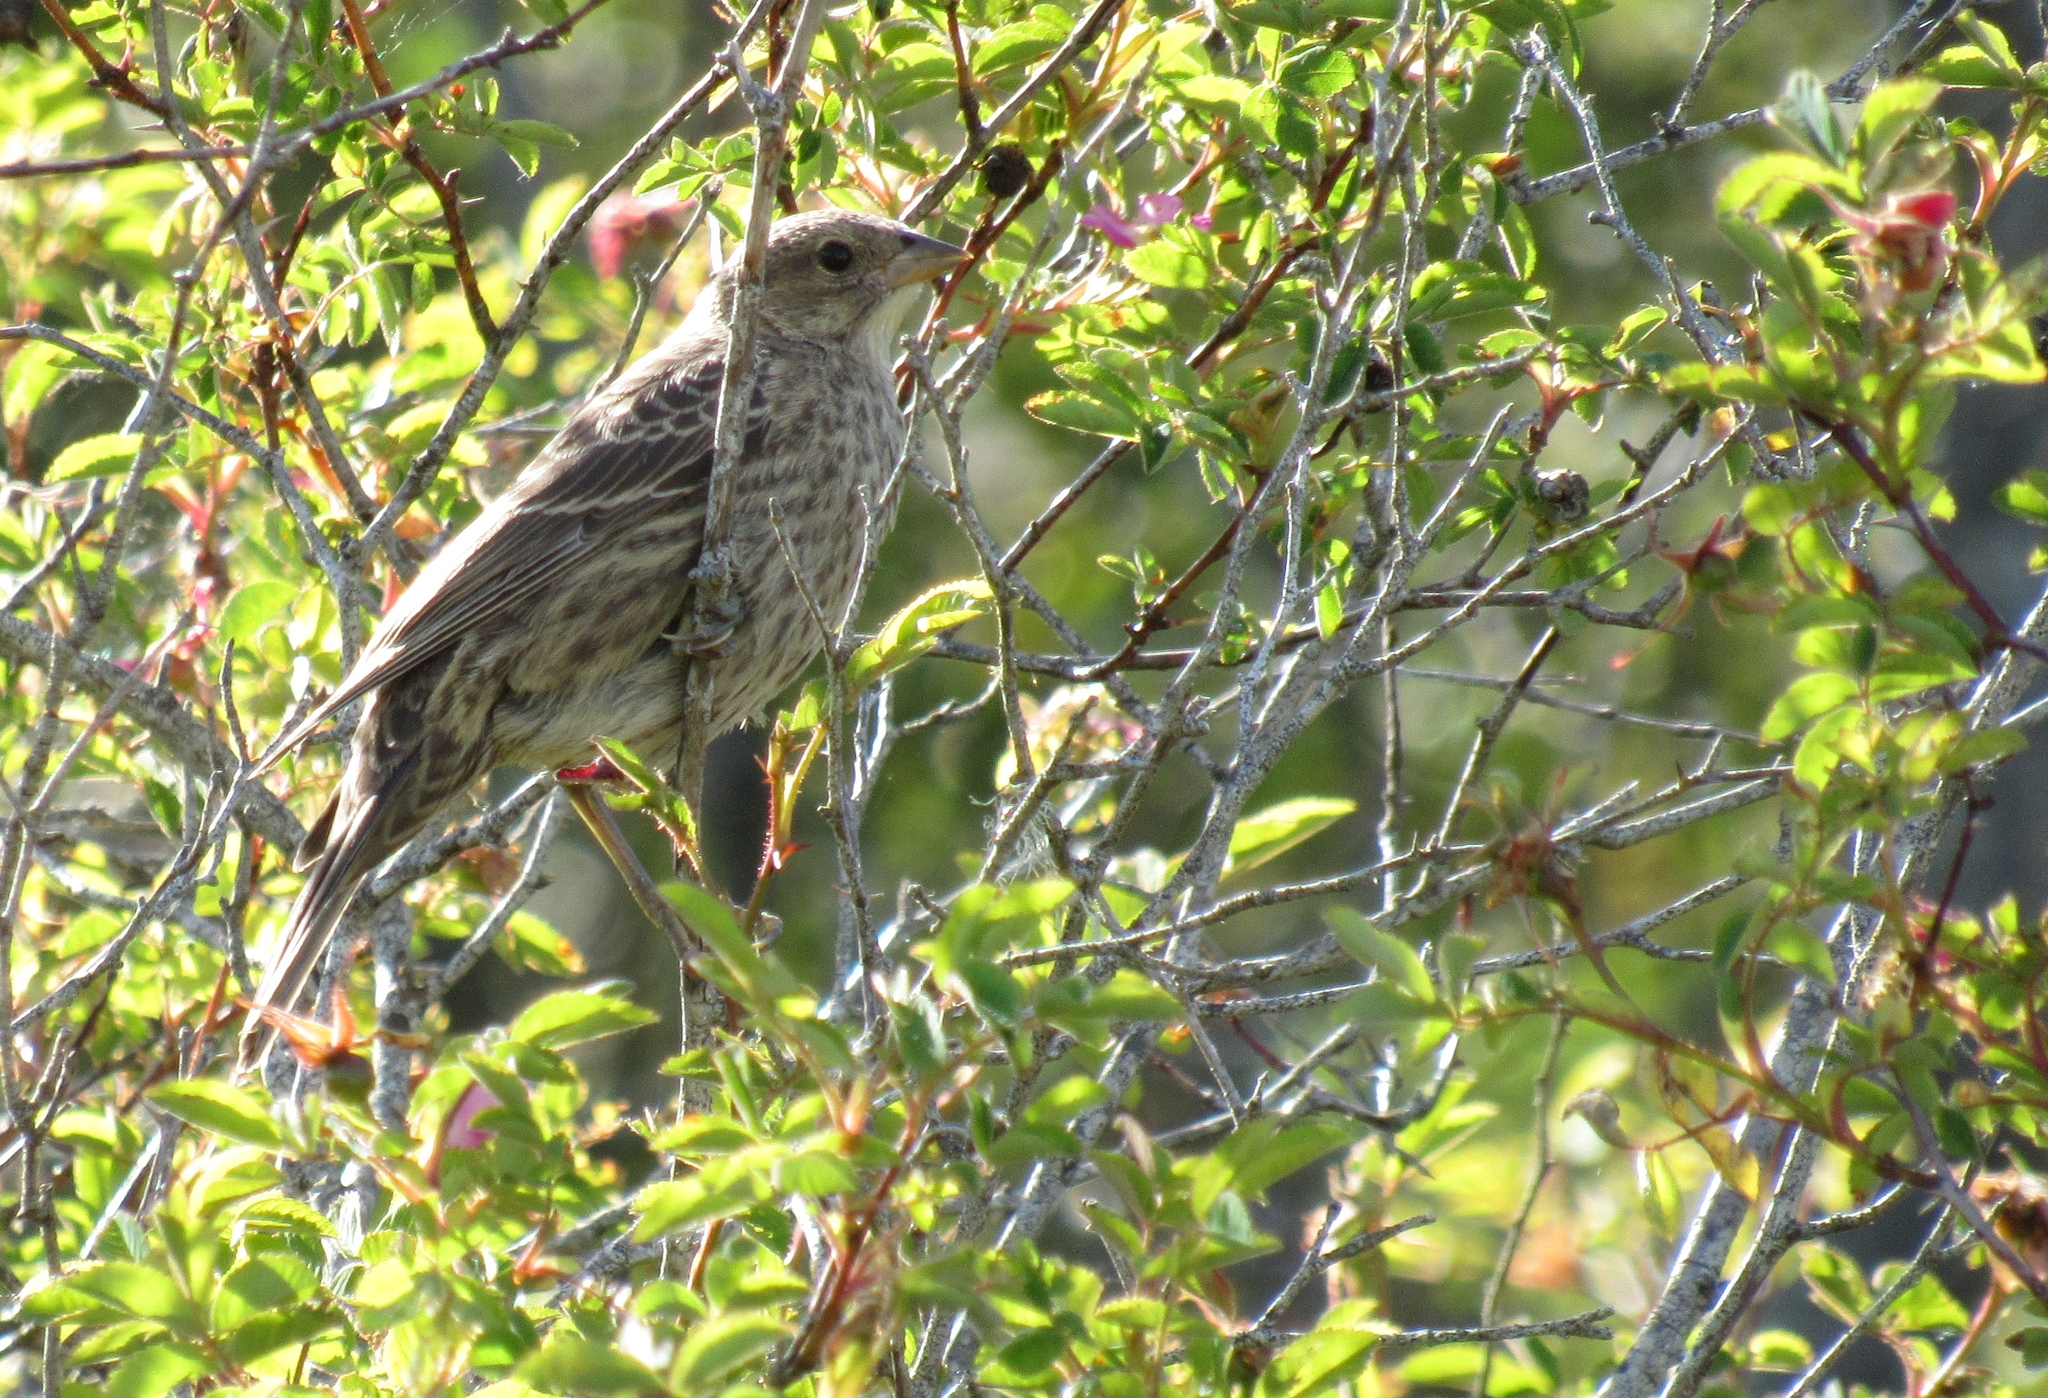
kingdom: Animalia
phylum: Chordata
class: Aves
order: Passeriformes
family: Icteridae
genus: Molothrus
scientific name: Molothrus ater
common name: Brown-headed cowbird
